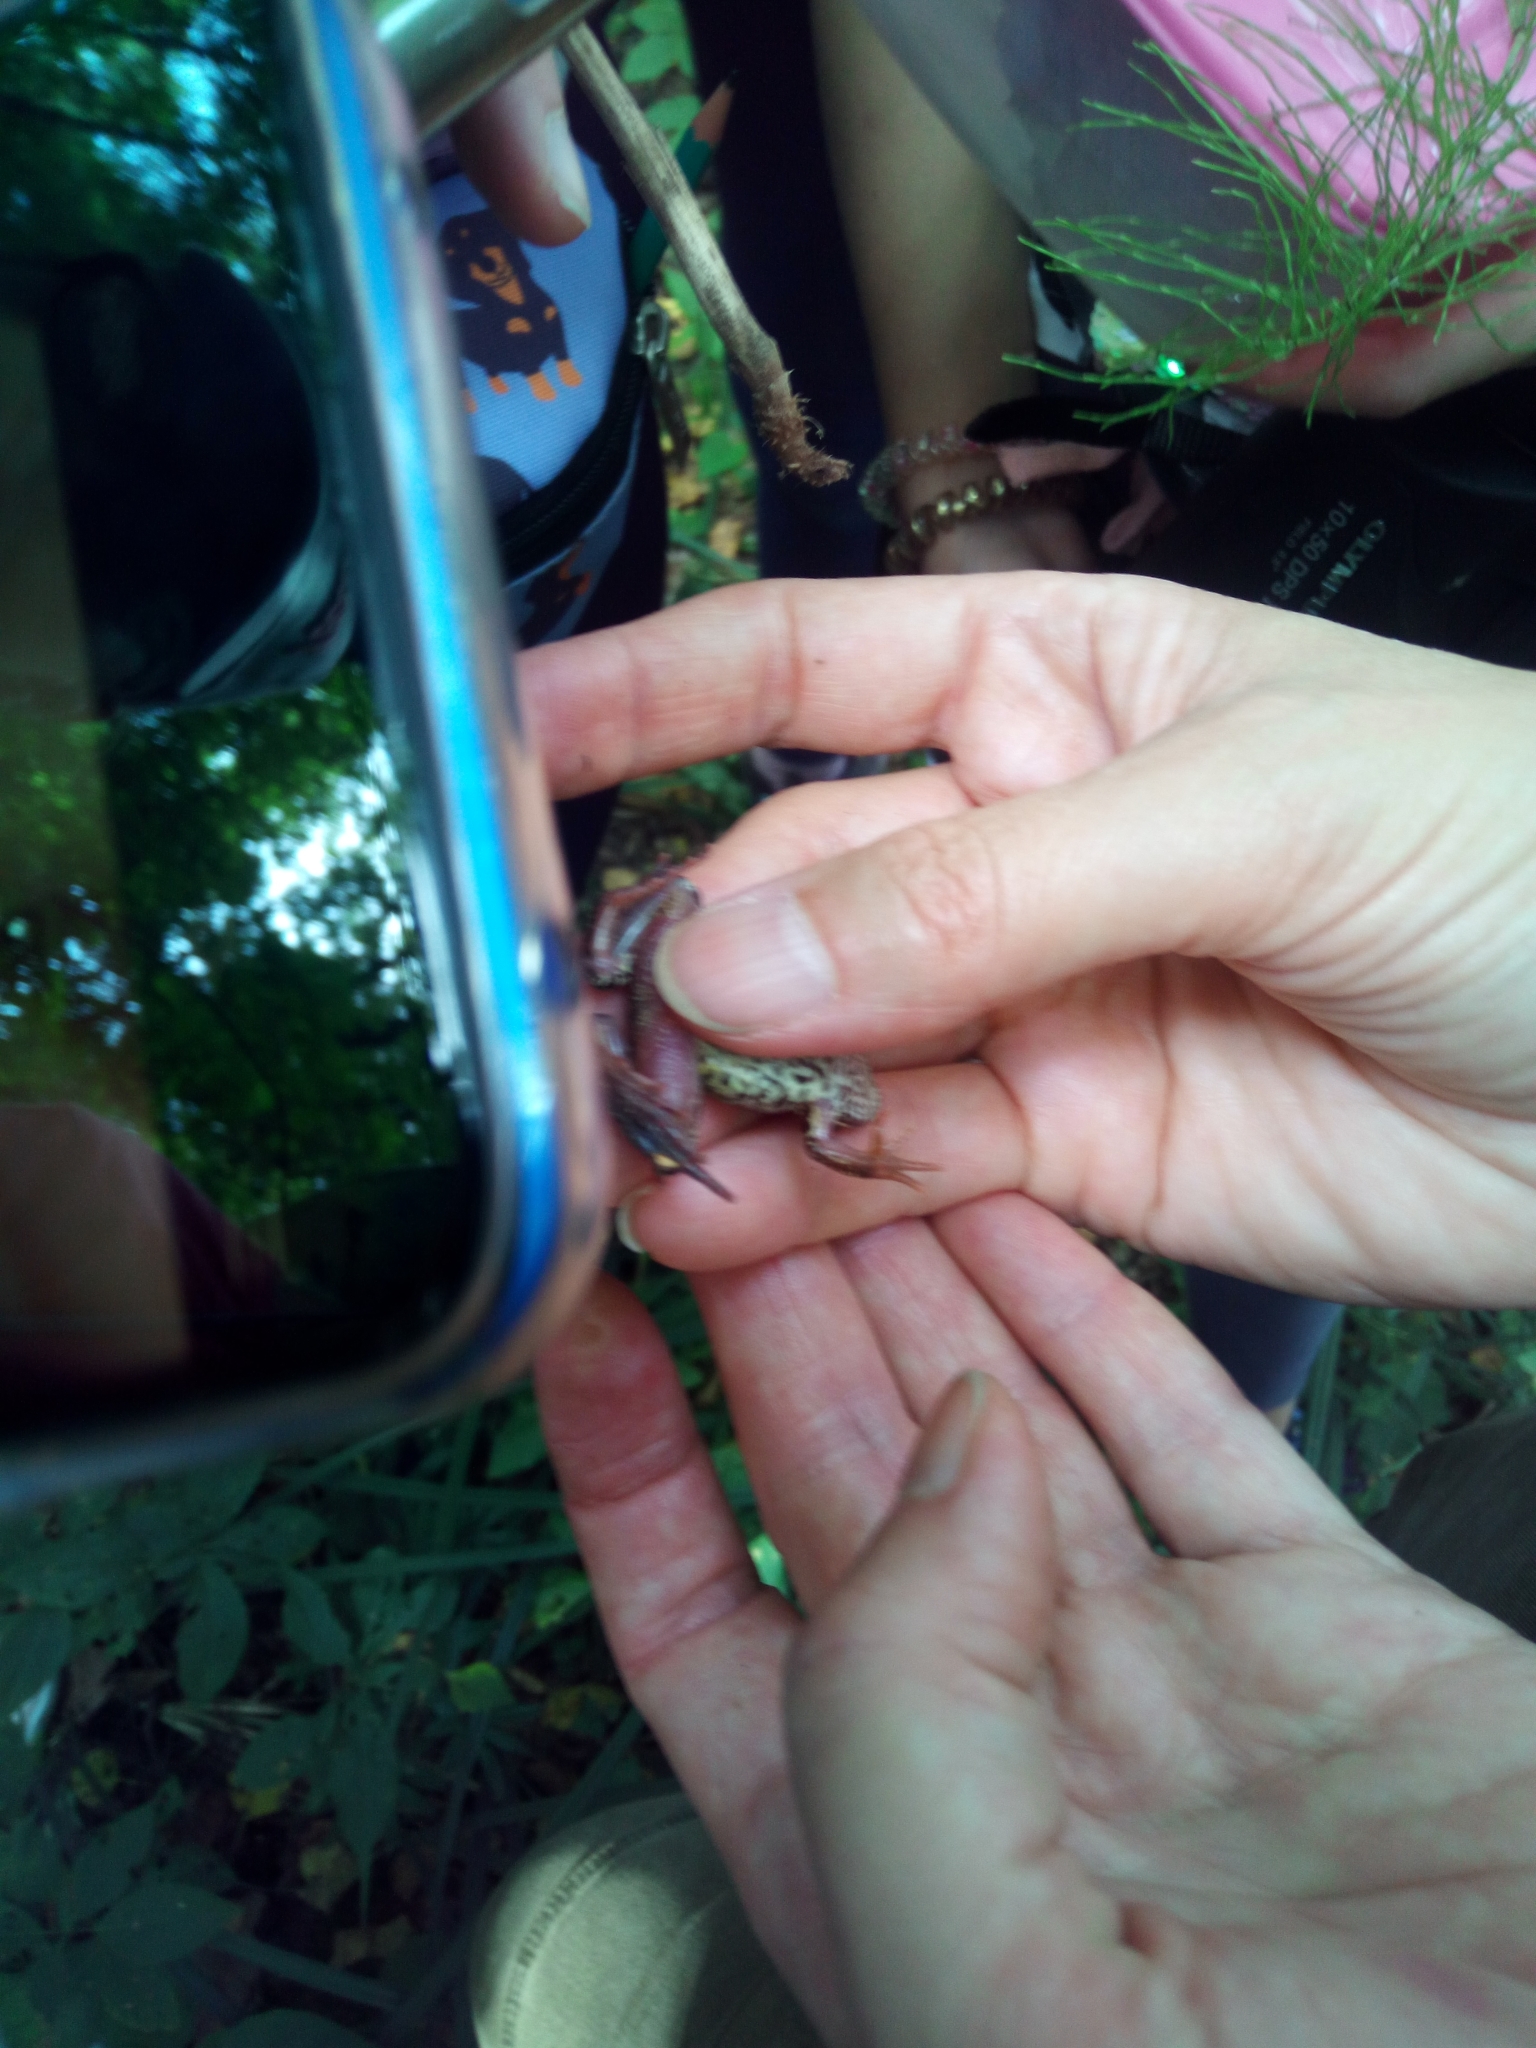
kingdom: Animalia
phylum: Chordata
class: Amphibia
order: Anura
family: Ranidae
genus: Rana
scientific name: Rana temporaria
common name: Common frog
